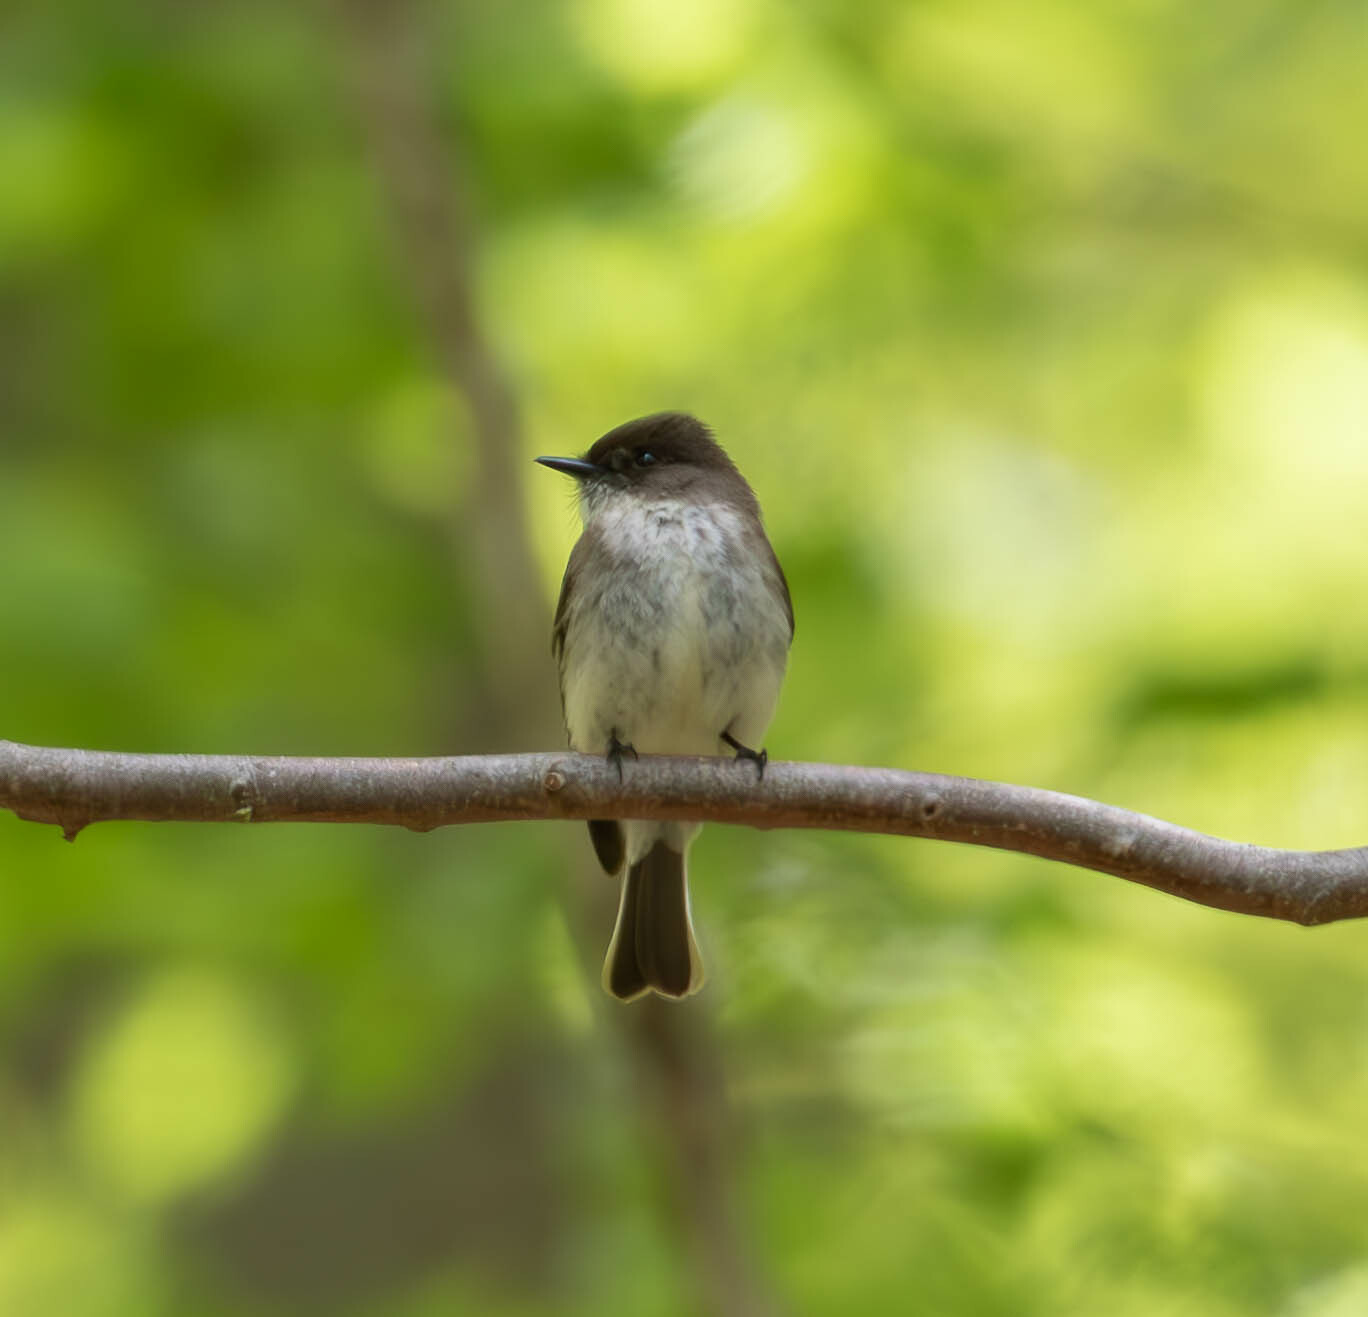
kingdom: Animalia
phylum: Chordata
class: Aves
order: Passeriformes
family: Tyrannidae
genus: Sayornis
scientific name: Sayornis phoebe
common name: Eastern phoebe
